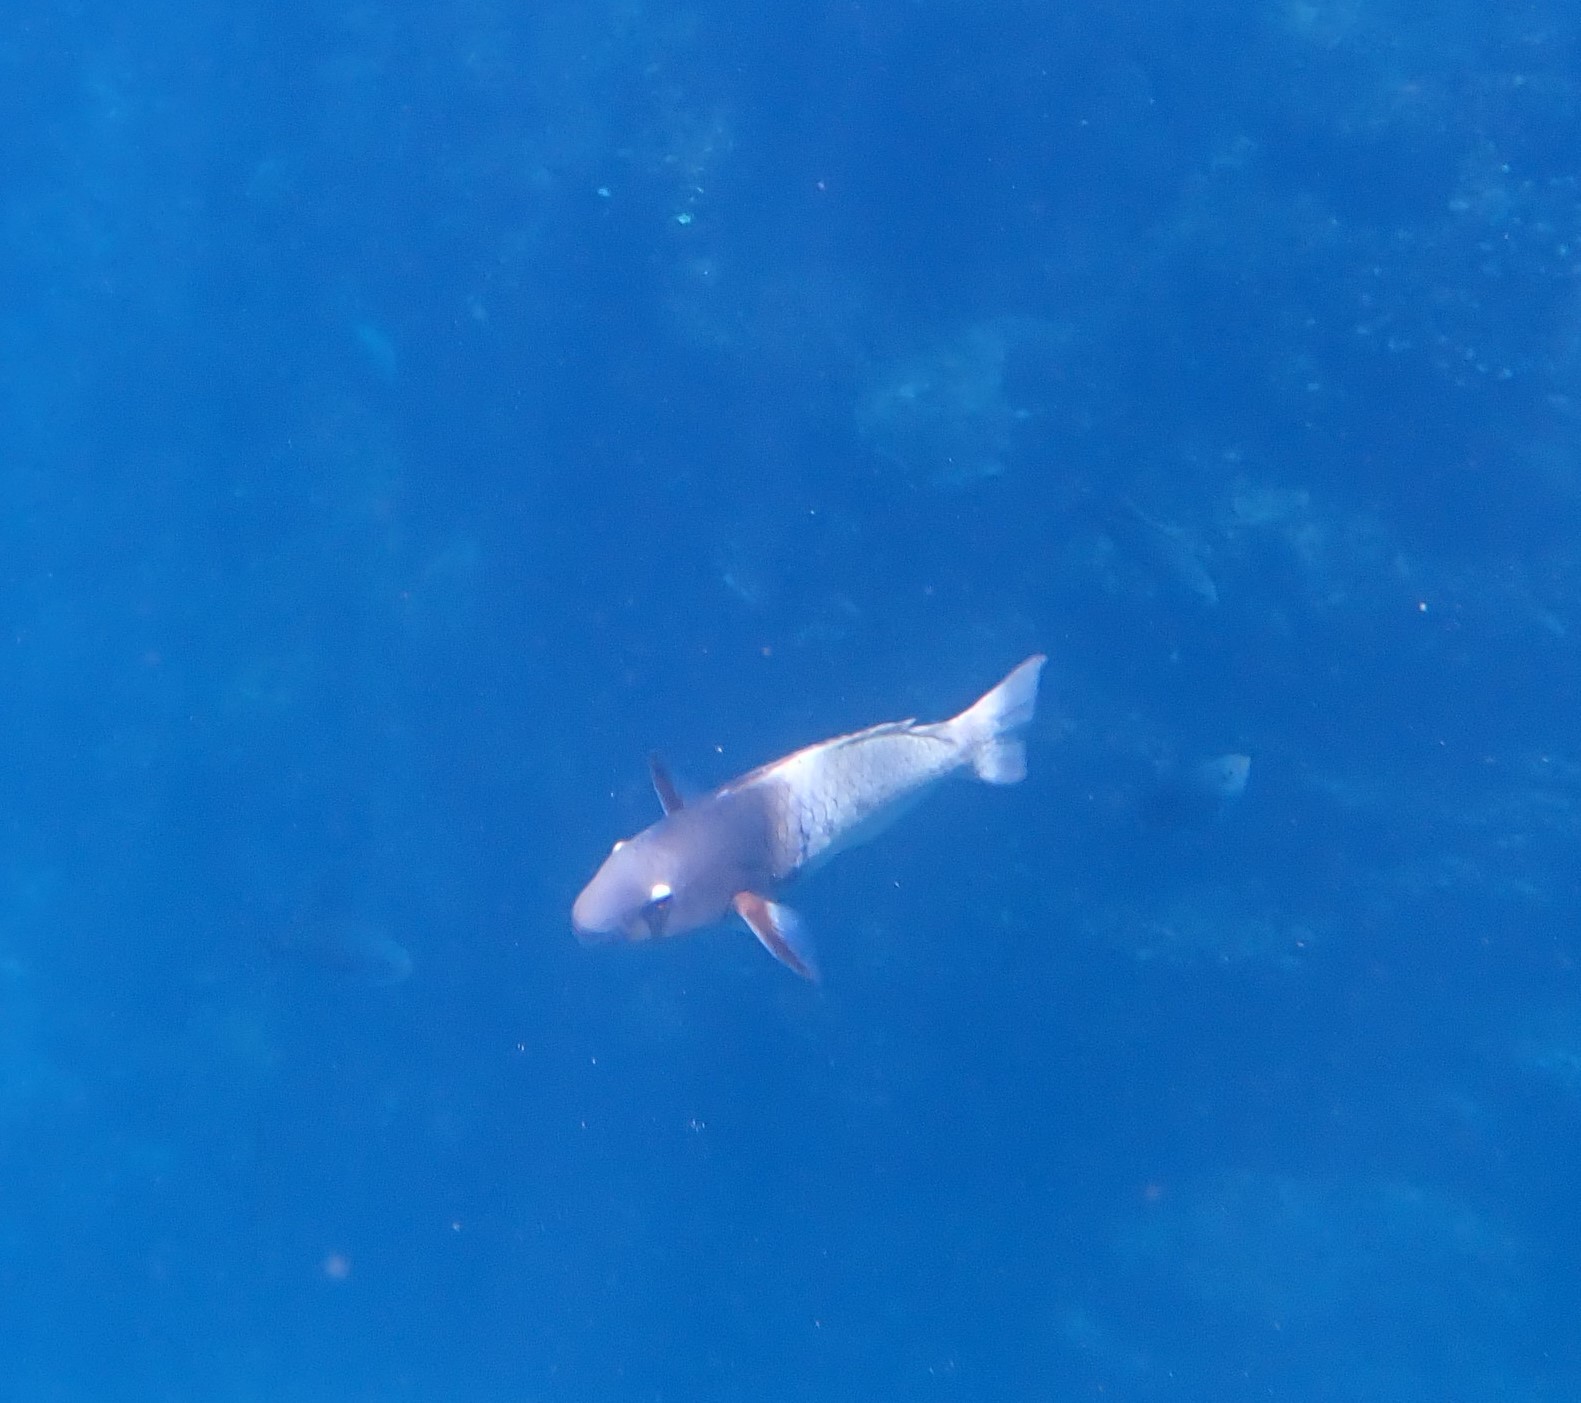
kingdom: Animalia
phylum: Chordata
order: Perciformes
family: Scaridae
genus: Scarus
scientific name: Scarus rubroviolaceus
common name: Ember parrotfish
